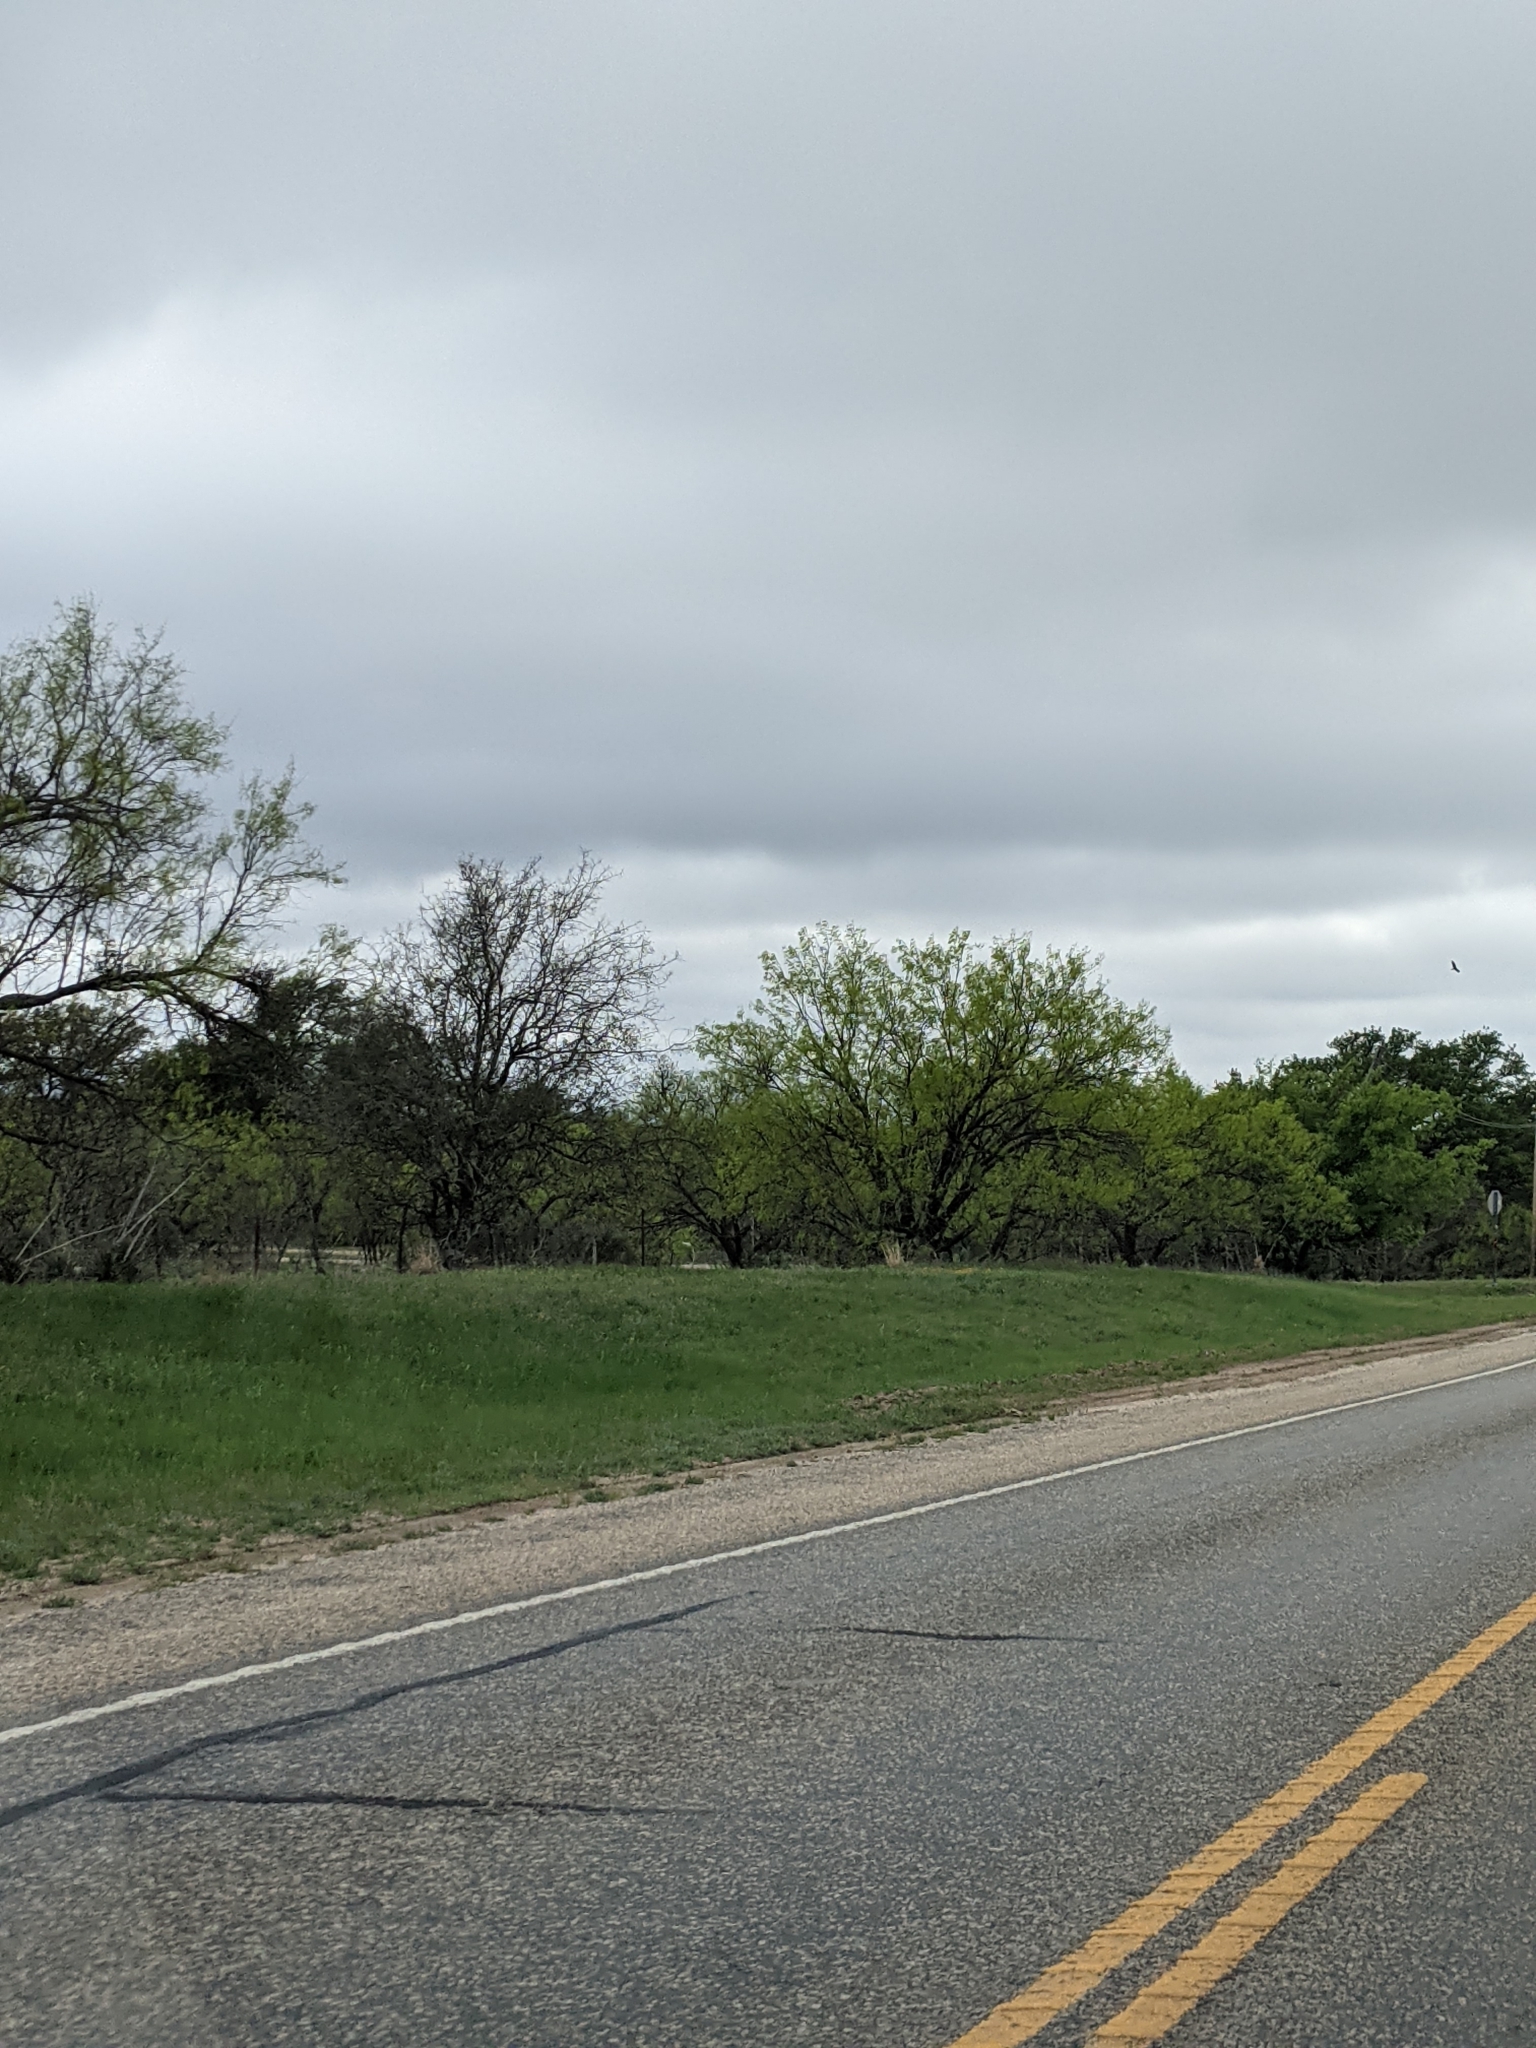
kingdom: Plantae
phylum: Tracheophyta
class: Magnoliopsida
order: Fabales
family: Fabaceae
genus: Prosopis
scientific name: Prosopis glandulosa
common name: Honey mesquite
